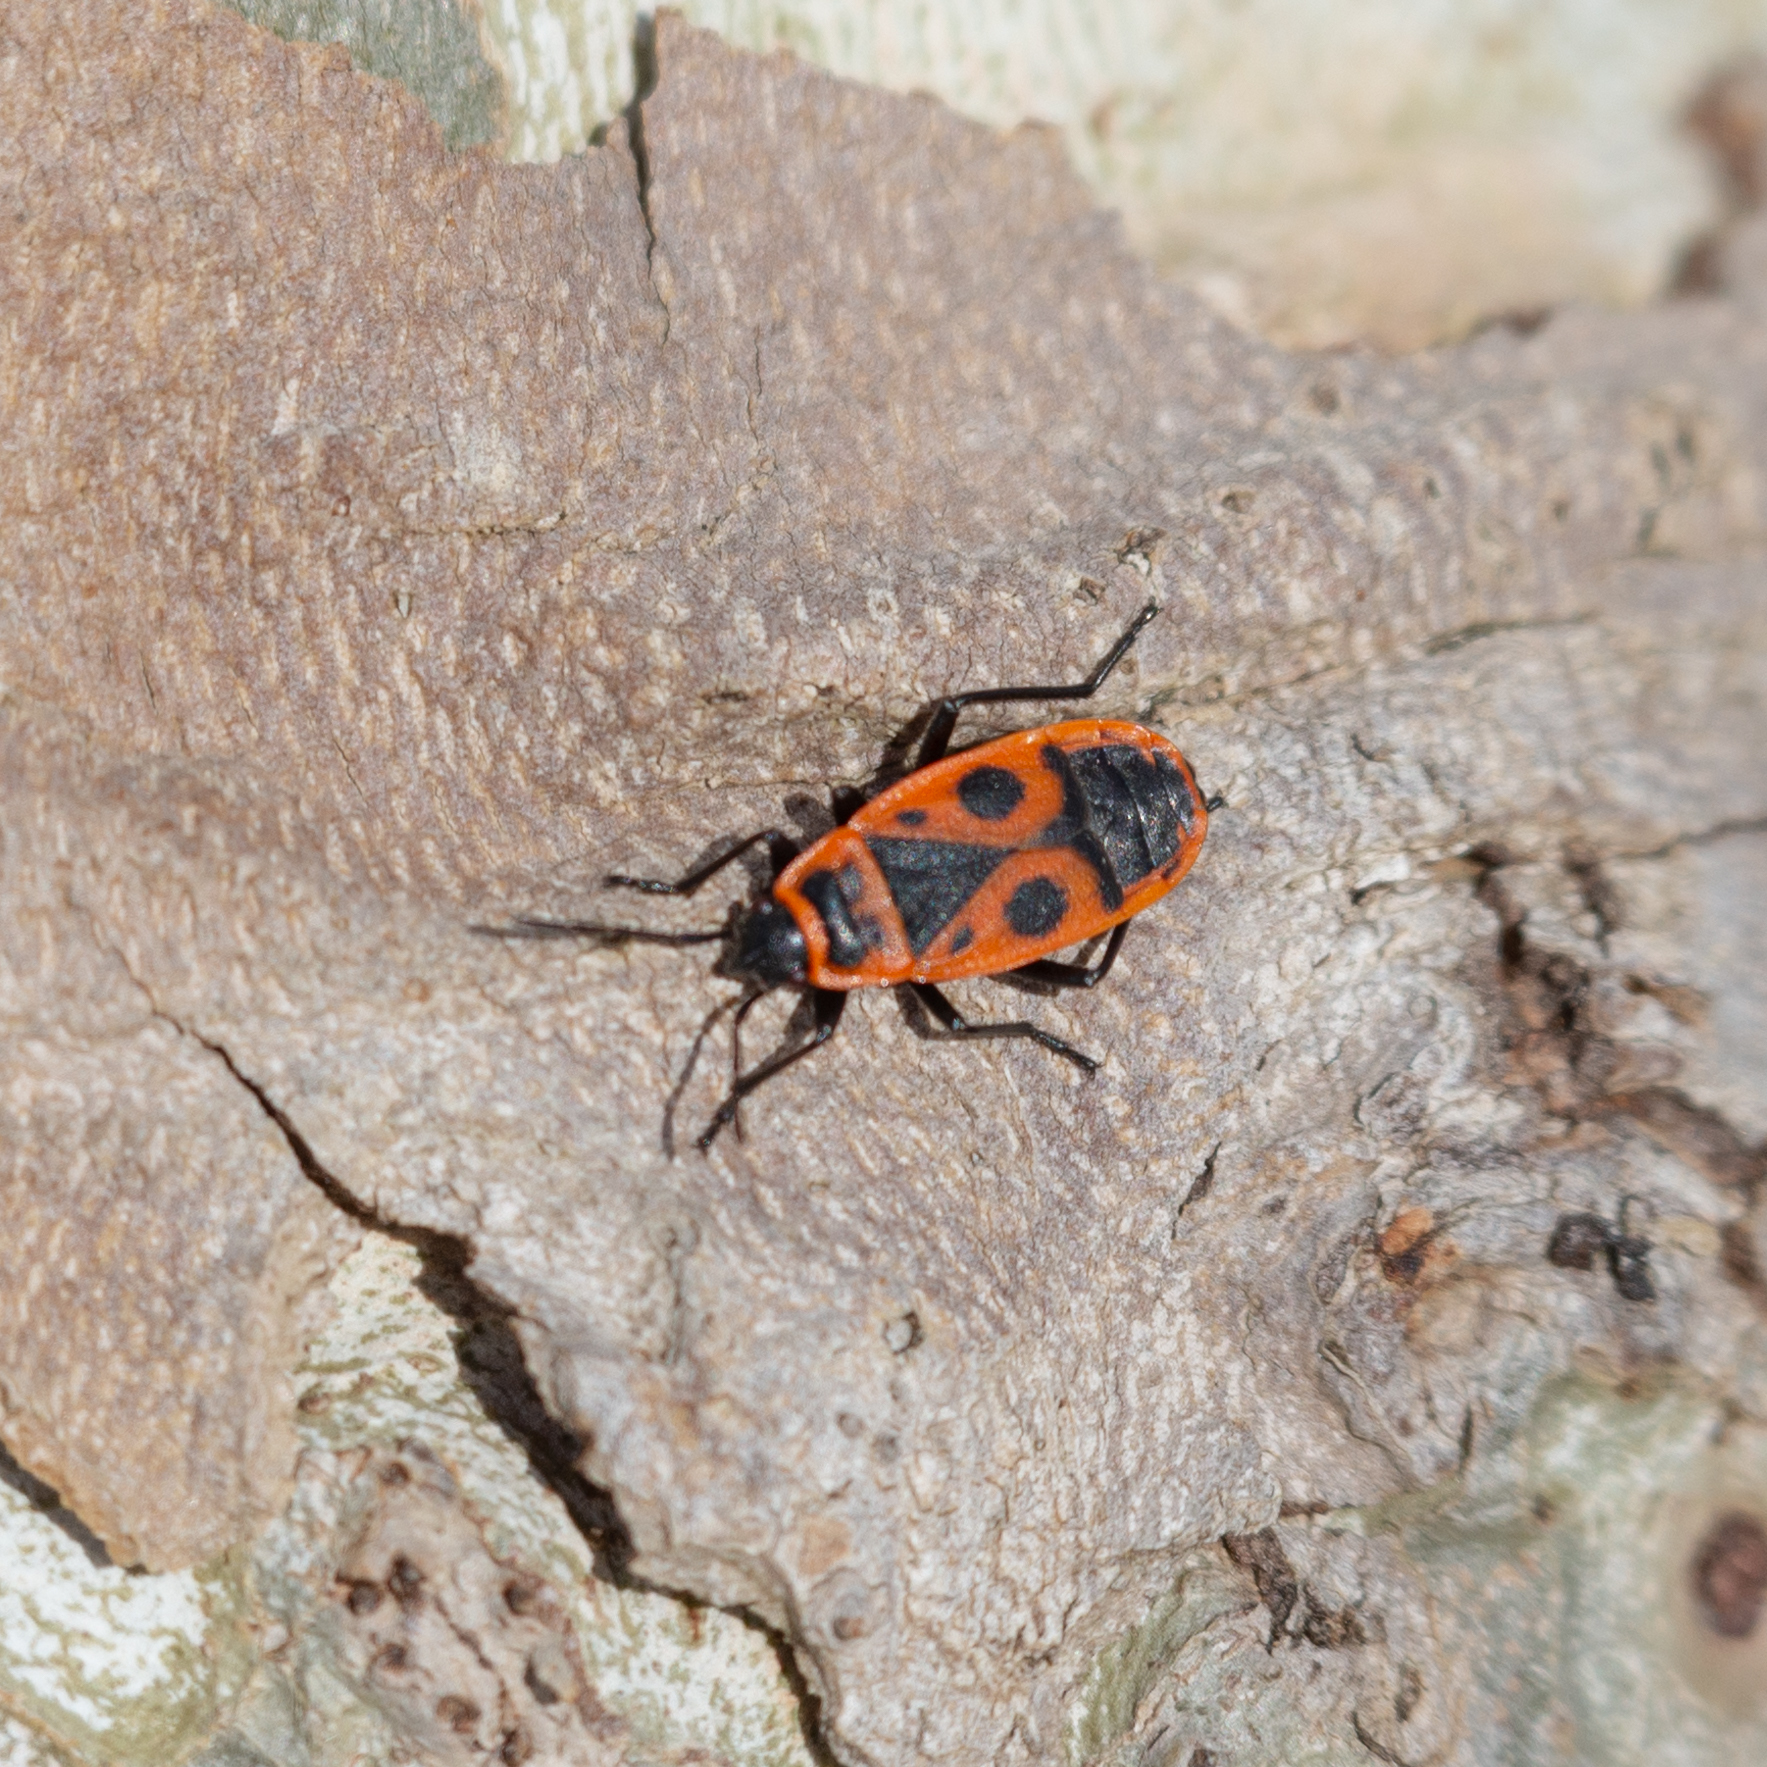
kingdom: Animalia
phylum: Arthropoda
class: Insecta
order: Hemiptera
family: Pyrrhocoridae
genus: Pyrrhocoris
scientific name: Pyrrhocoris apterus
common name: Firebug
